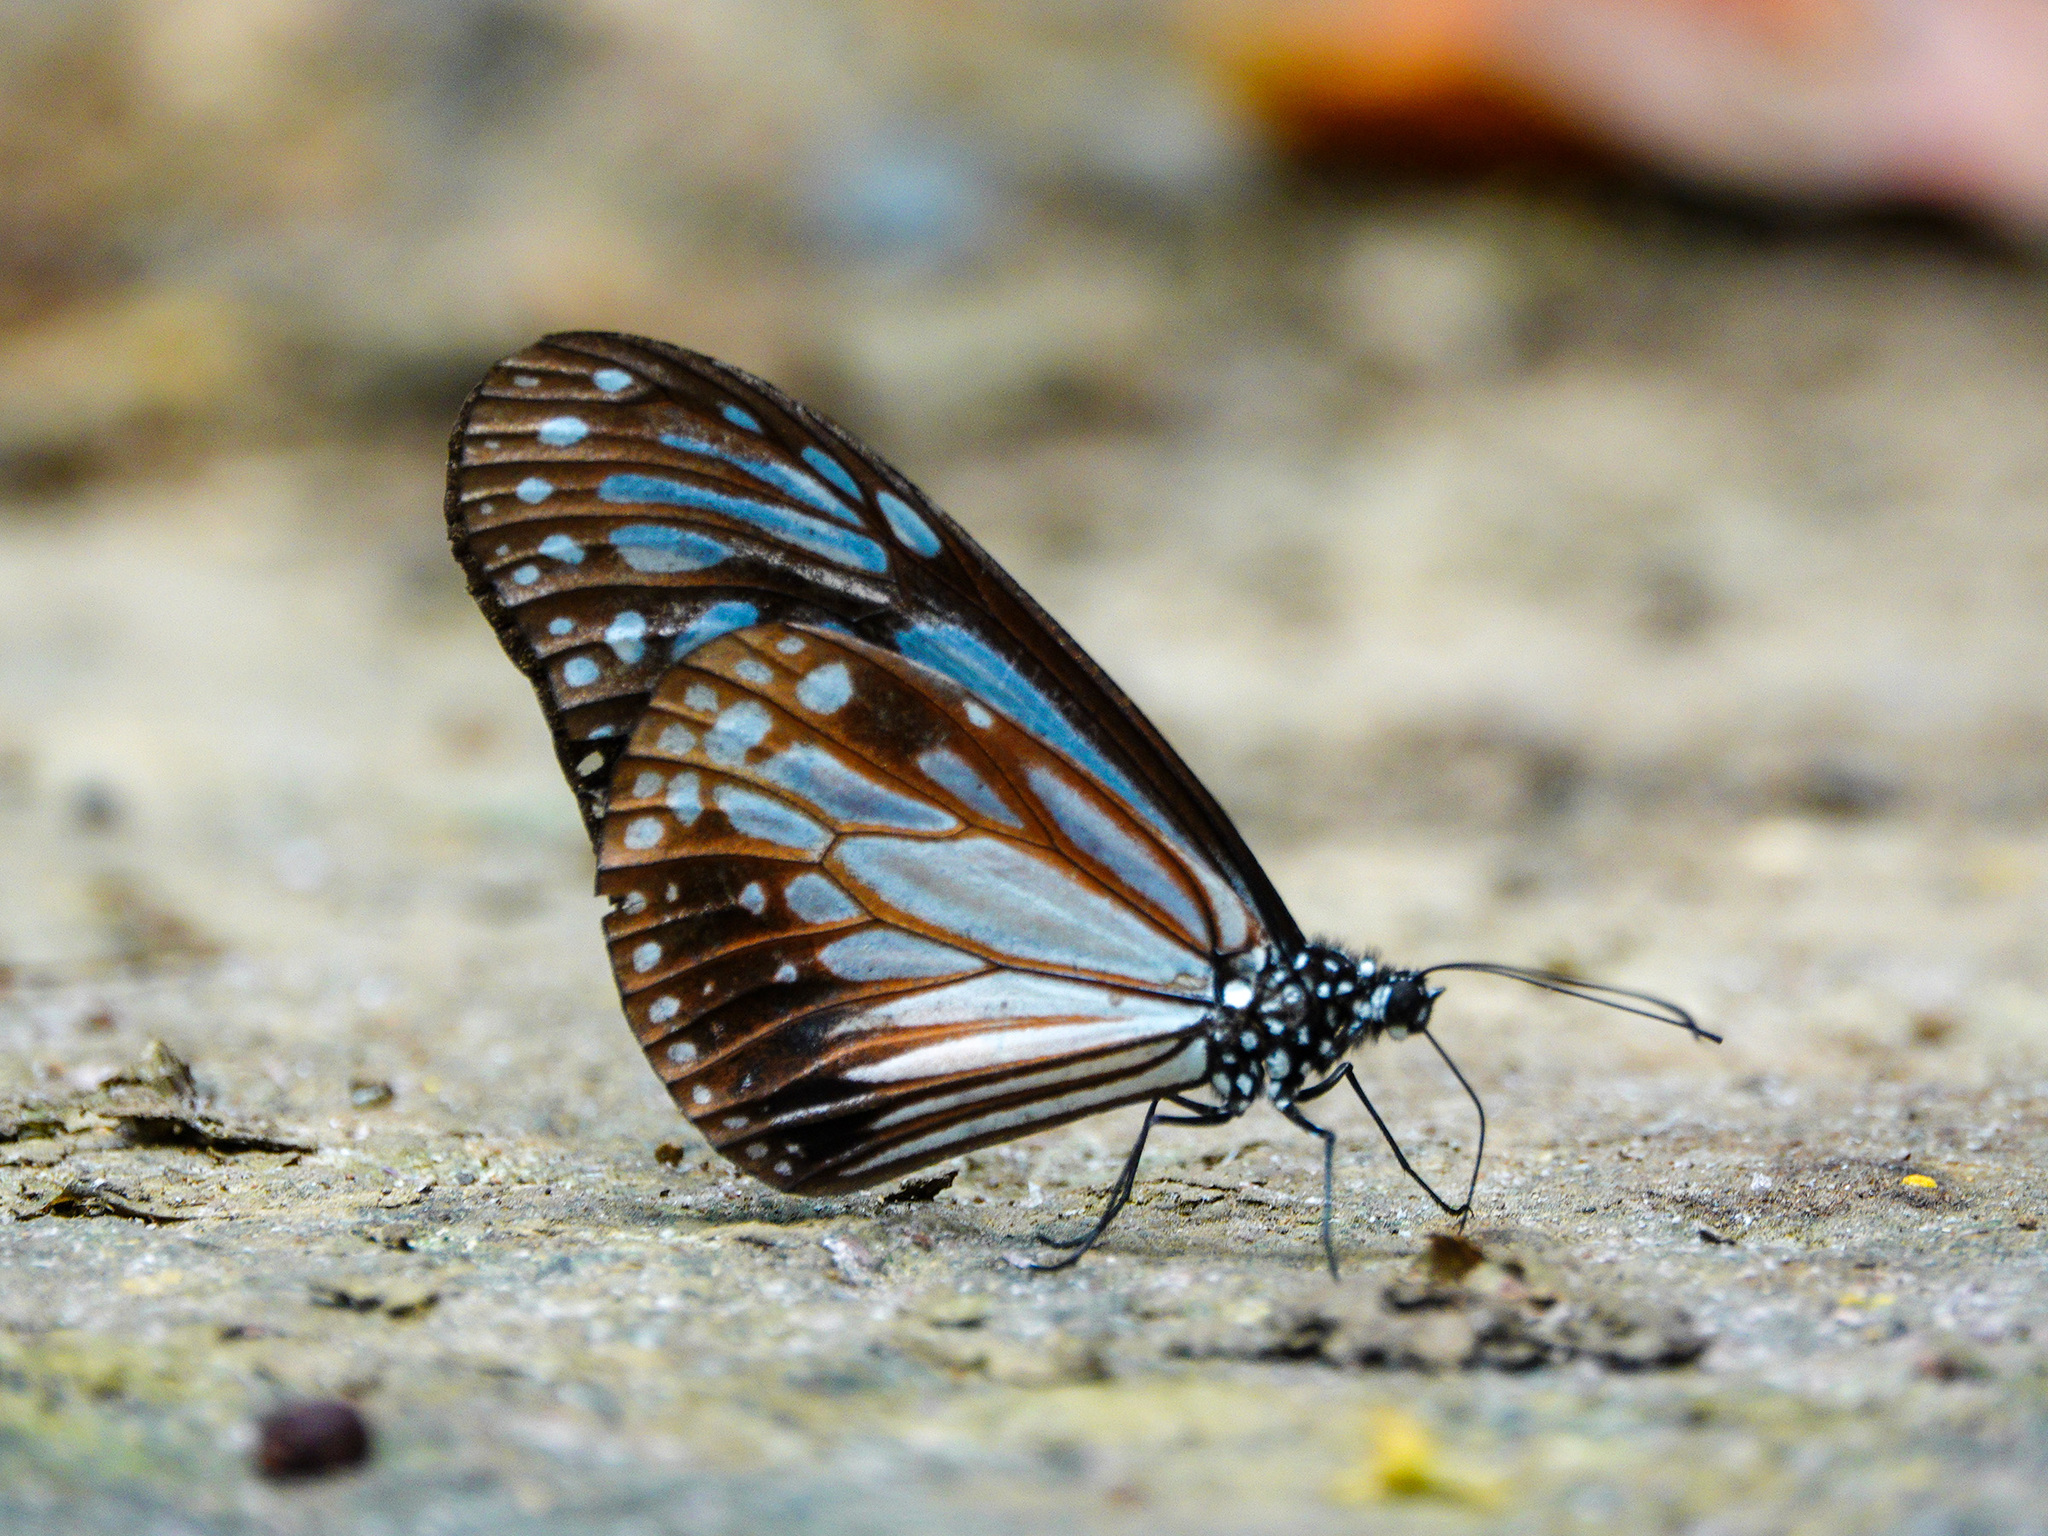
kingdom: Animalia
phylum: Arthropoda
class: Insecta
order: Lepidoptera
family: Nymphalidae
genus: Parantica
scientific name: Parantica melaneus
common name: Chocolate tiger
